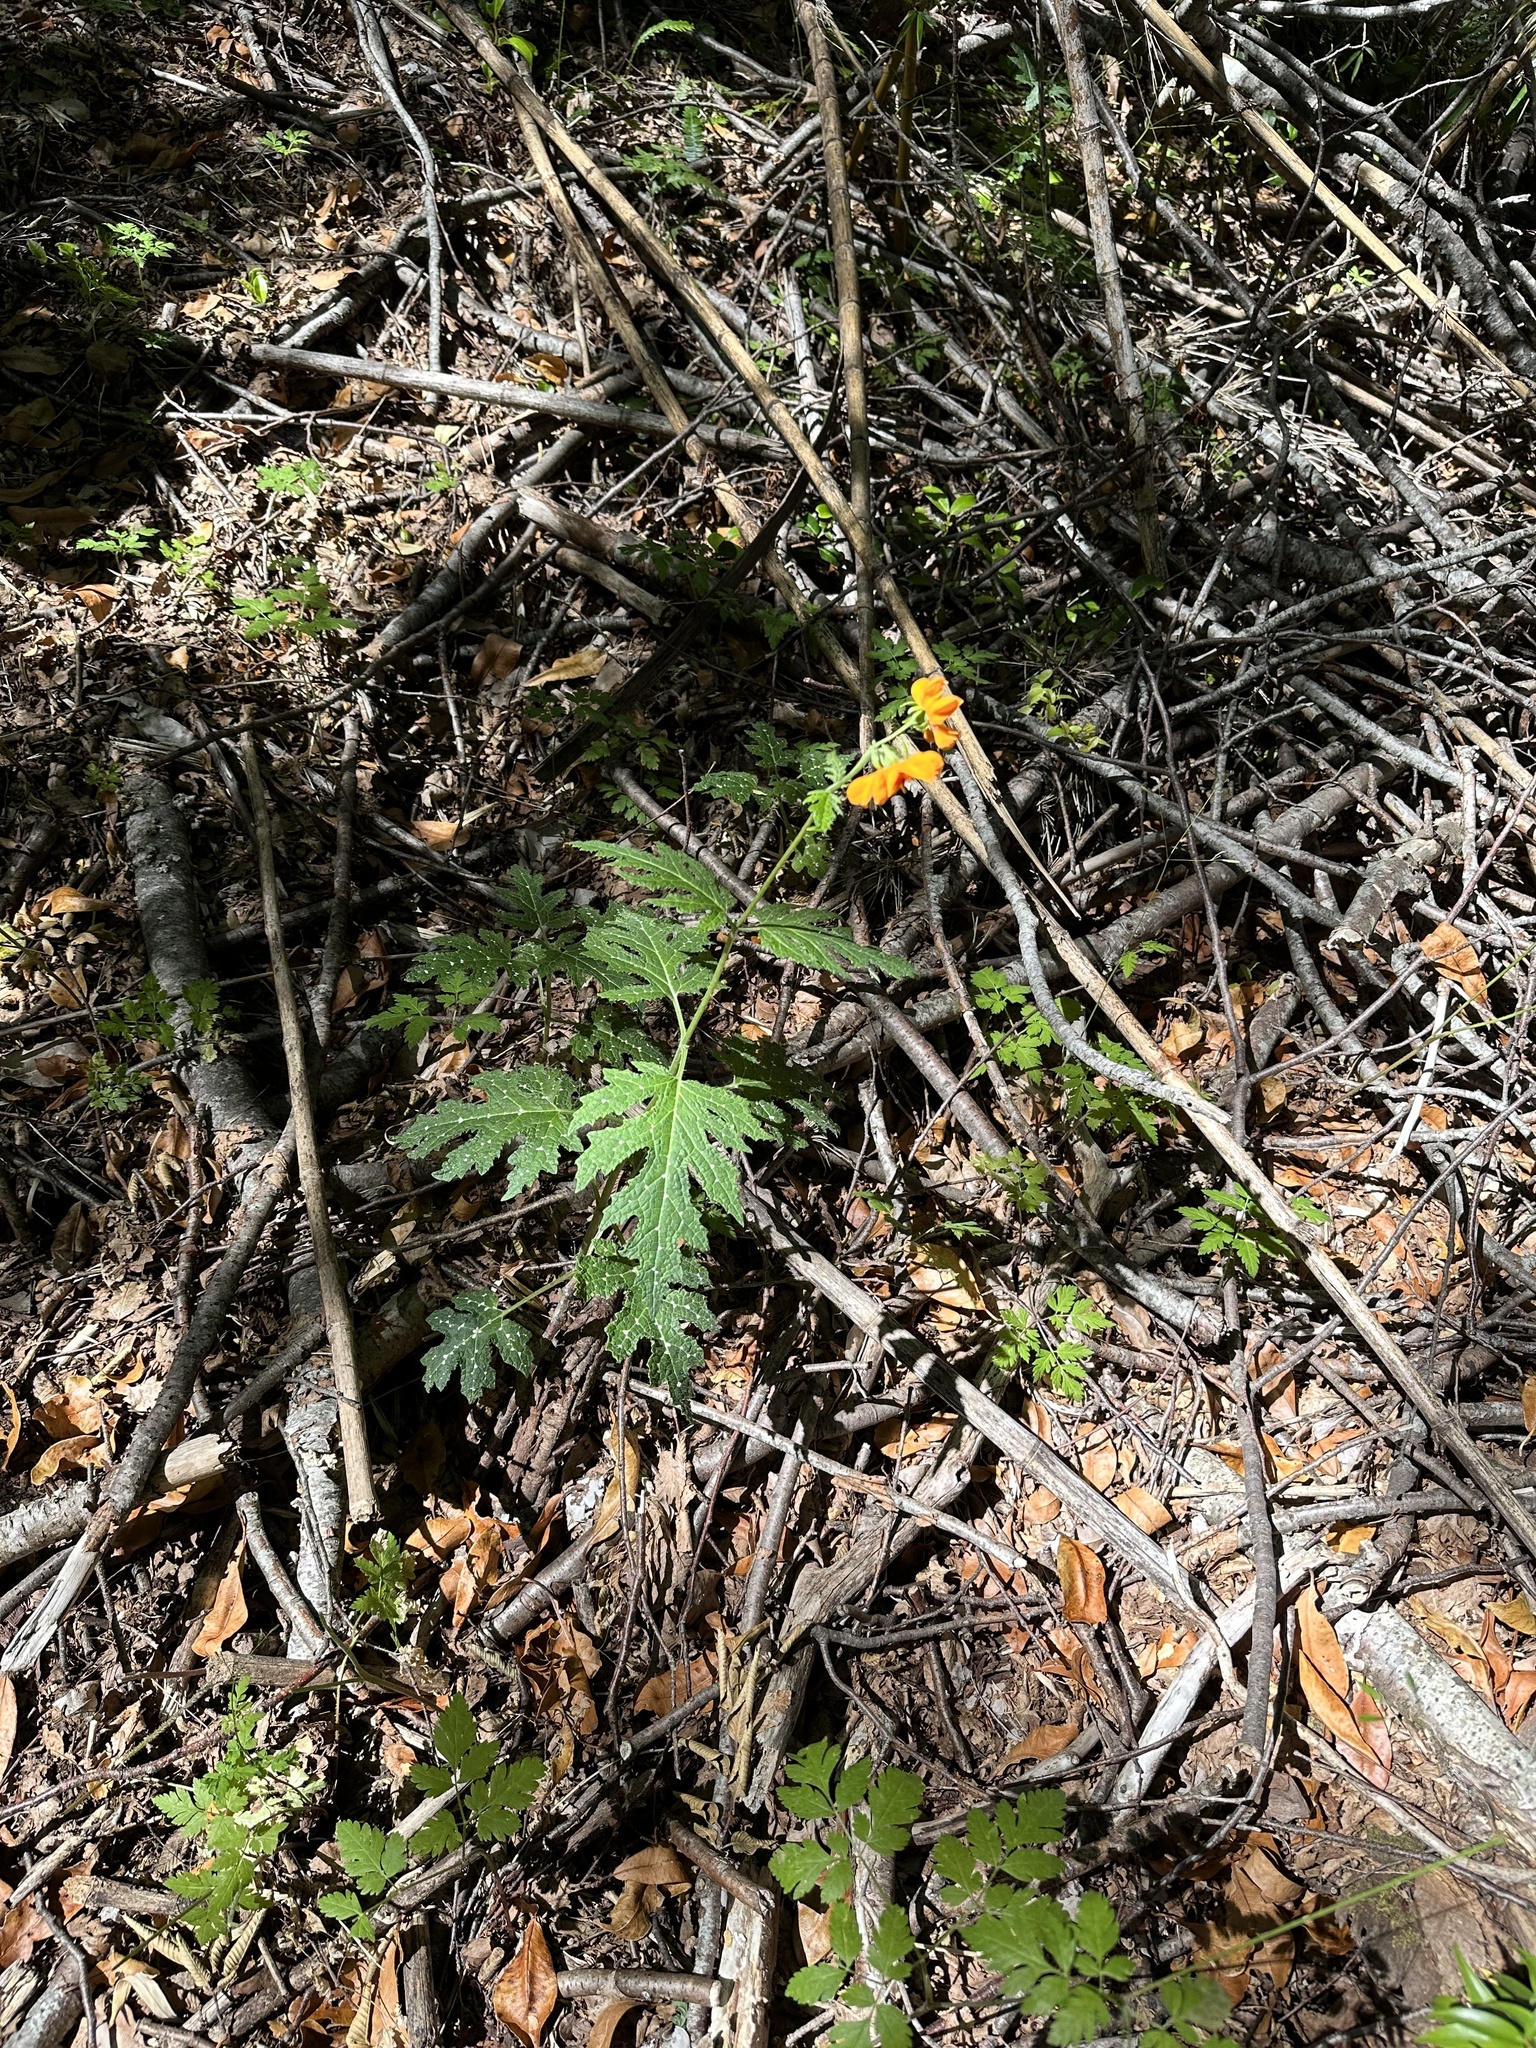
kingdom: Plantae
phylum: Tracheophyta
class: Magnoliopsida
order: Cornales
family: Loasaceae
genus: Loasa
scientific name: Loasa acanthifolia
